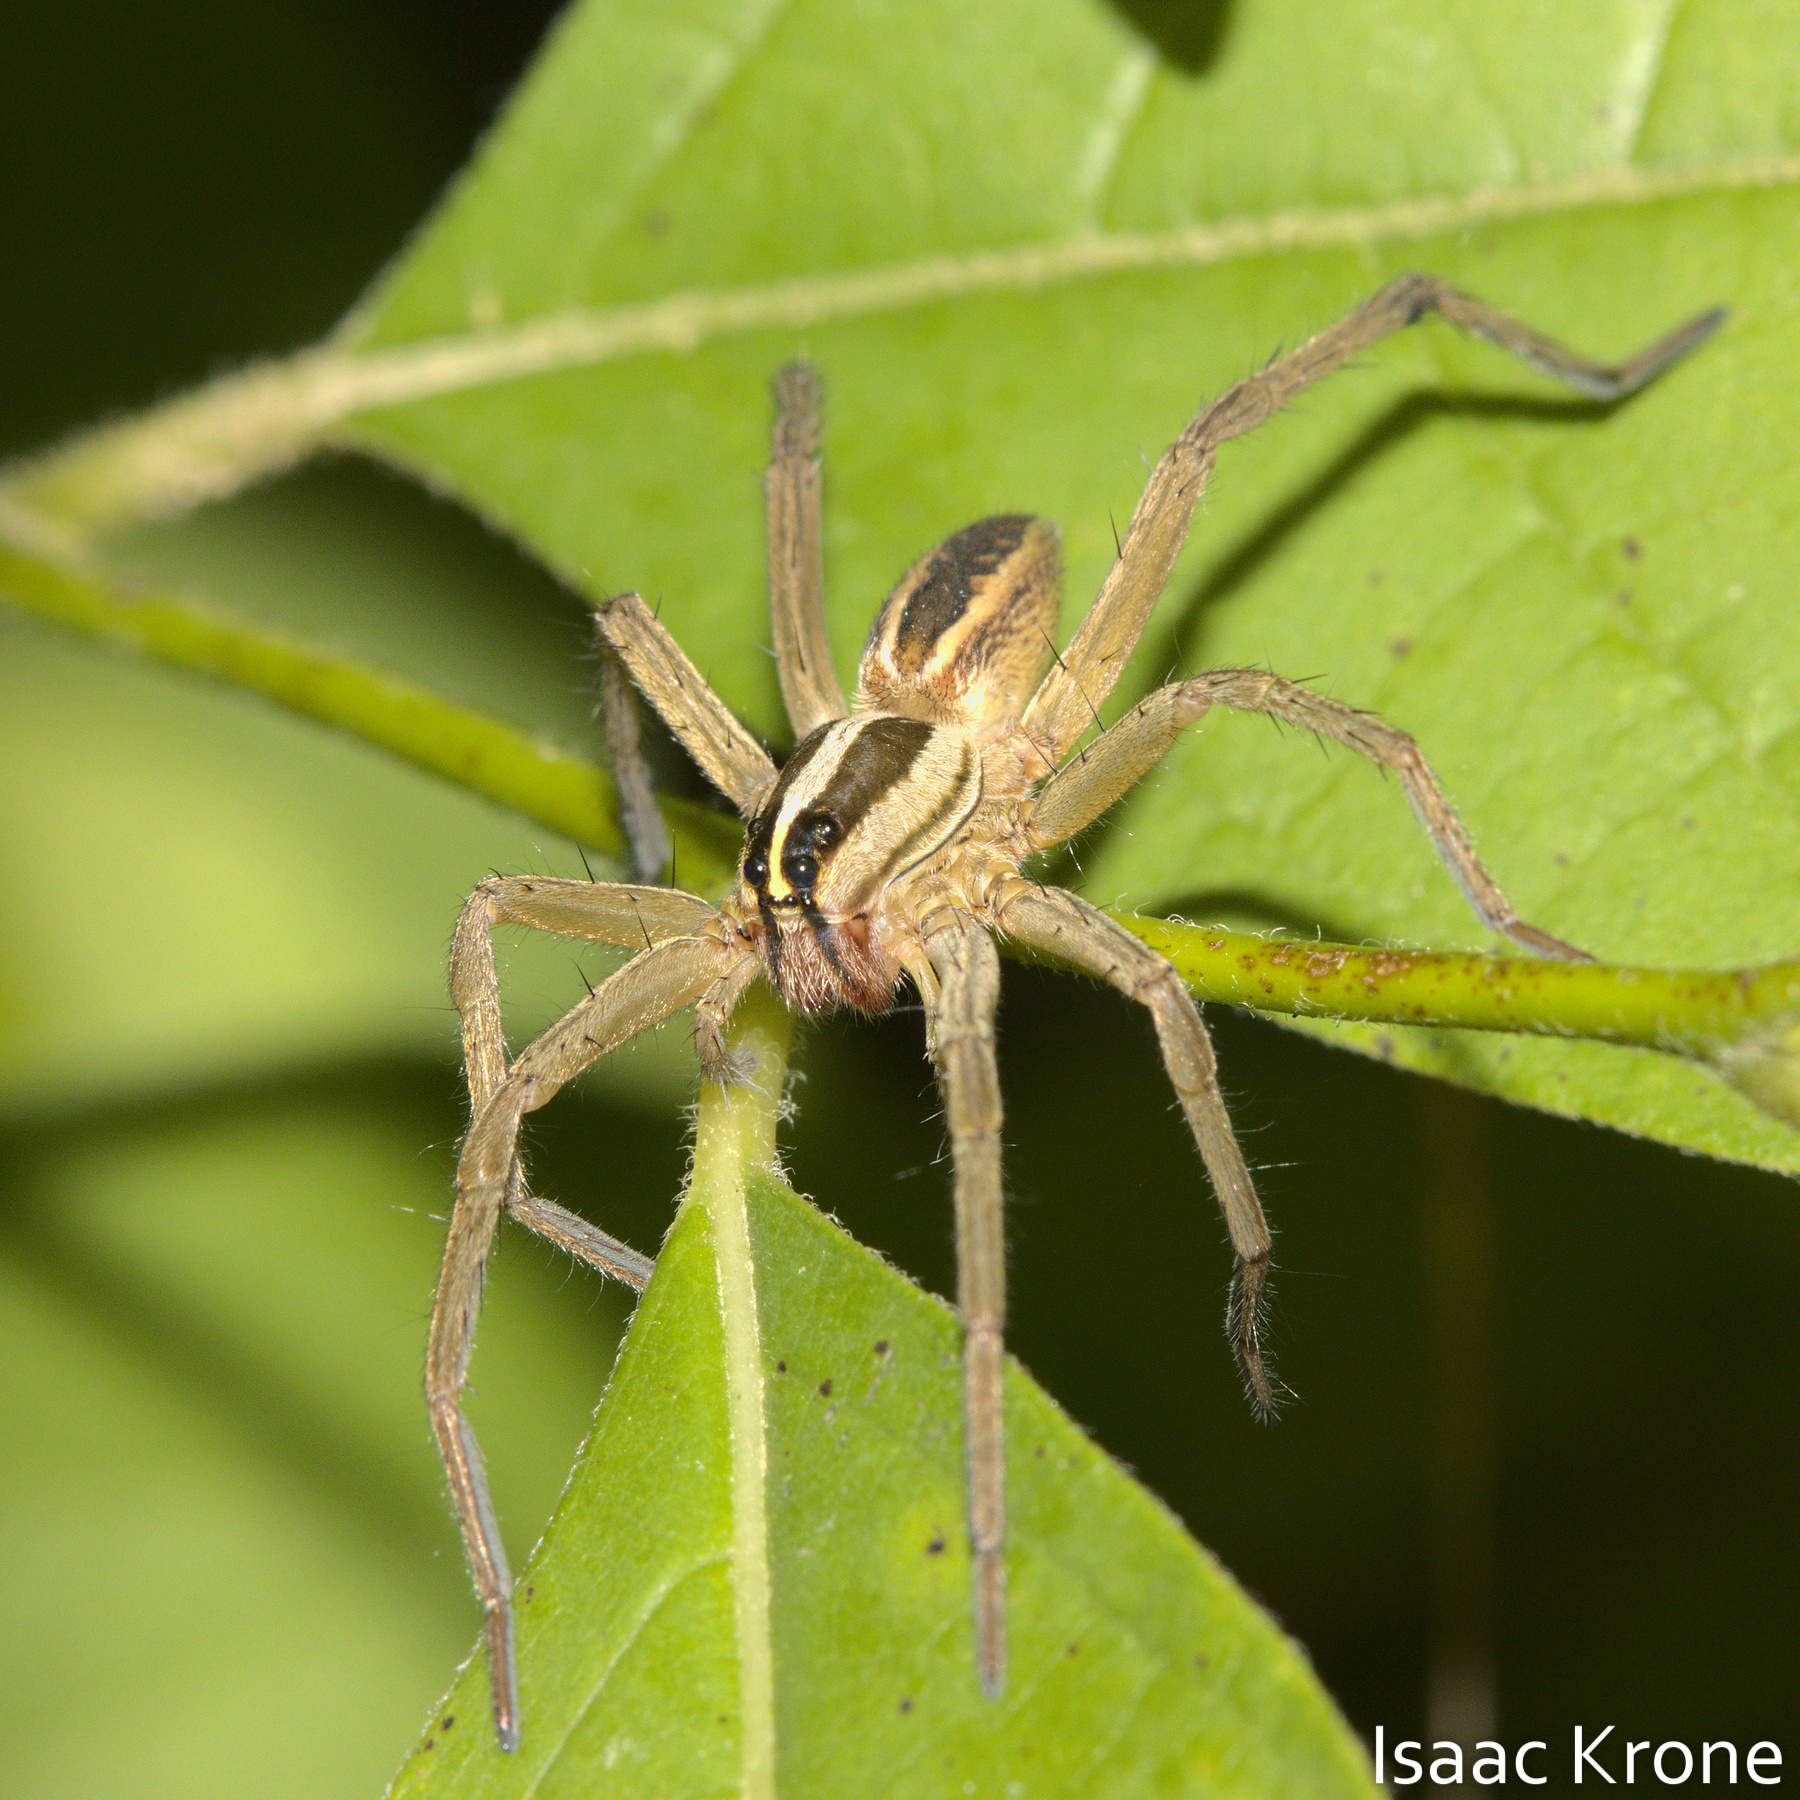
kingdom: Animalia
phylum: Arthropoda
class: Arachnida
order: Araneae
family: Lycosidae
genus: Rabidosa
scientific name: Rabidosa rabida
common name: Rabid wolf spider
